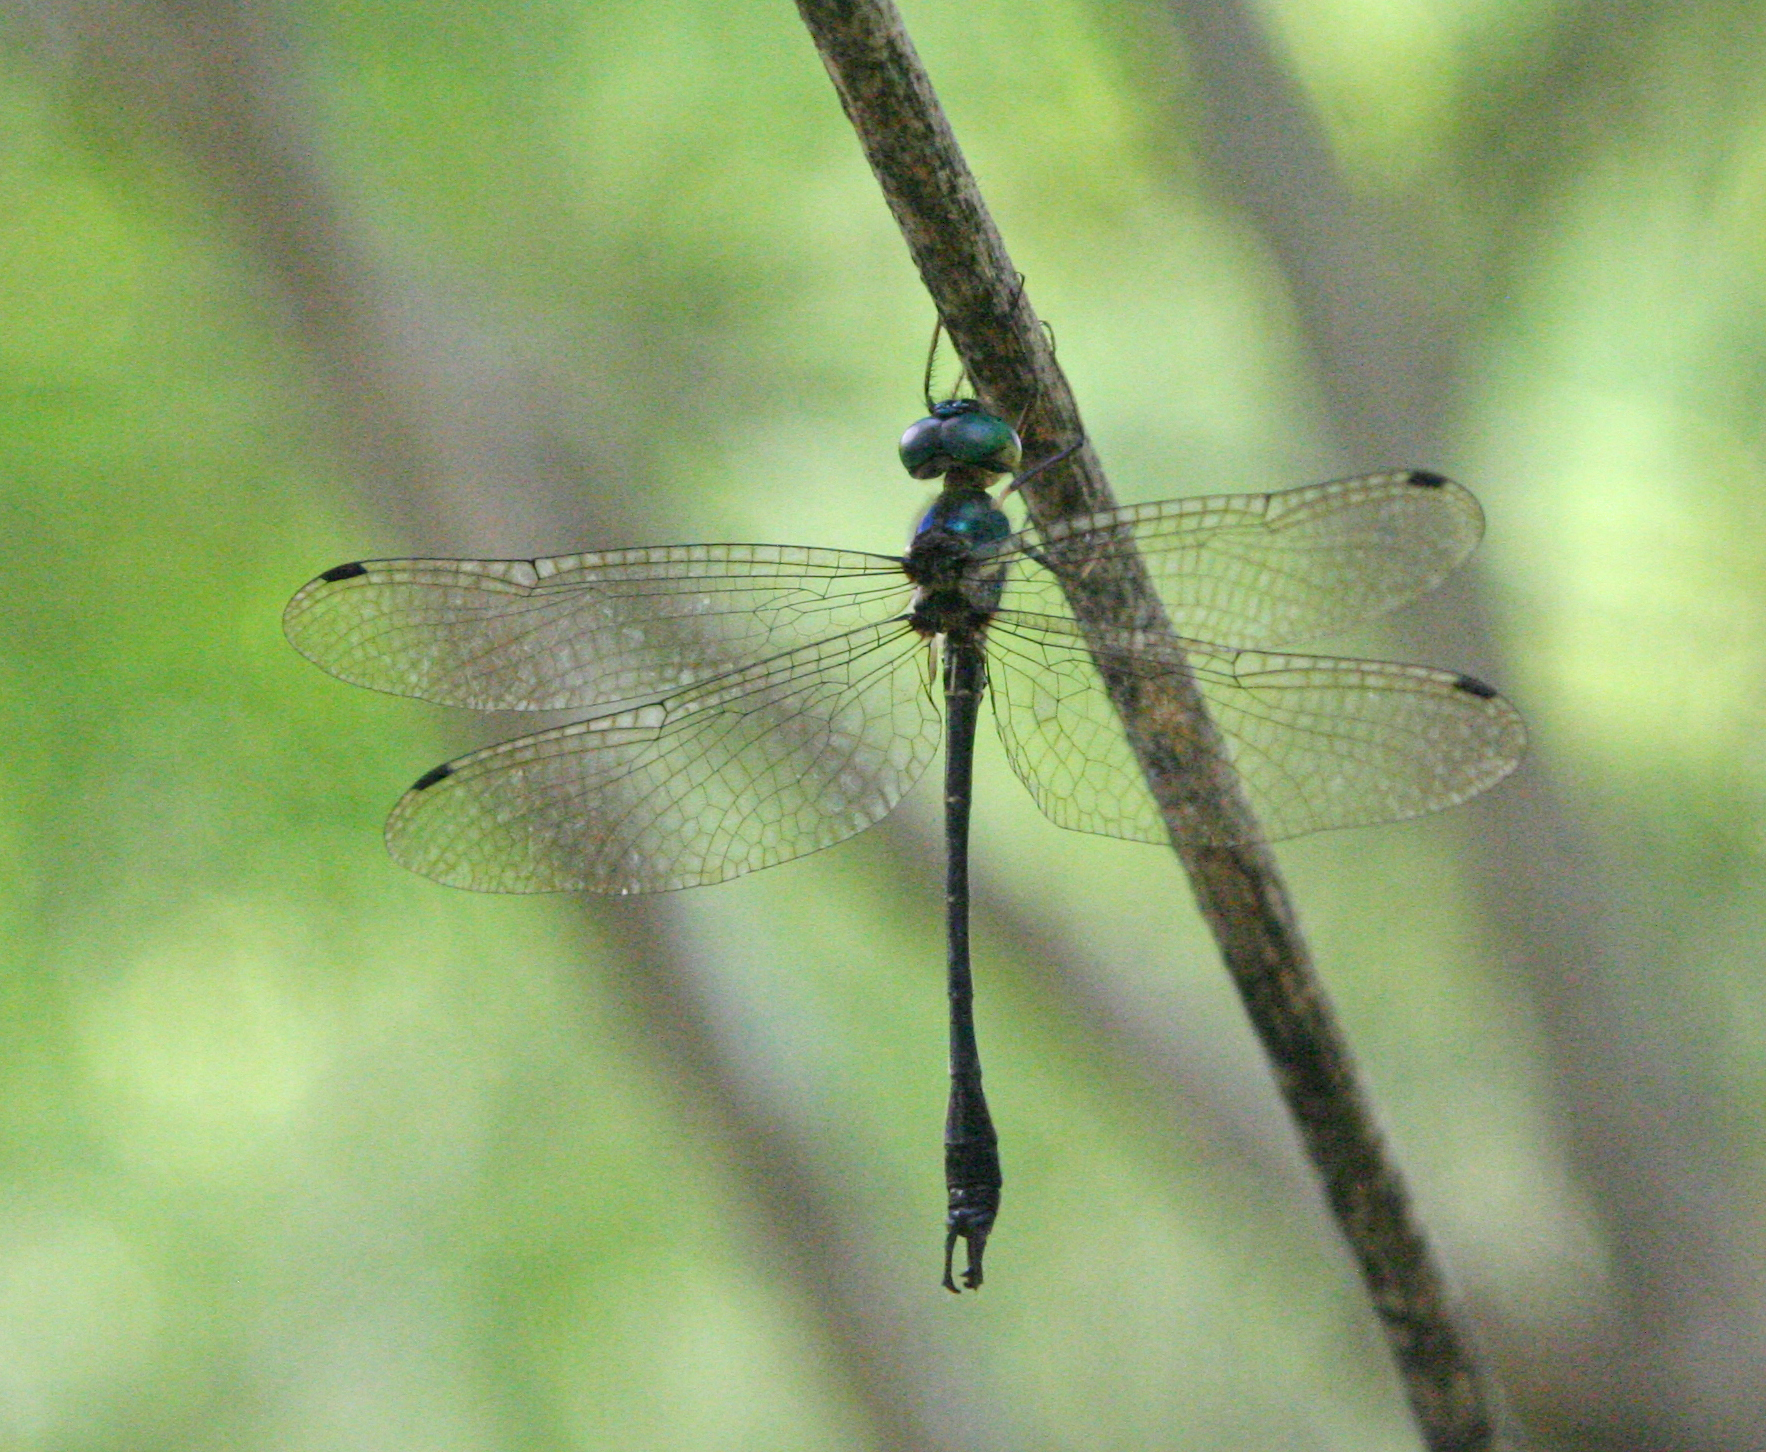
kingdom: Animalia
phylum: Arthropoda
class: Insecta
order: Odonata
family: Synthemistidae
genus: Idionyx
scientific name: Idionyx thailandicus
